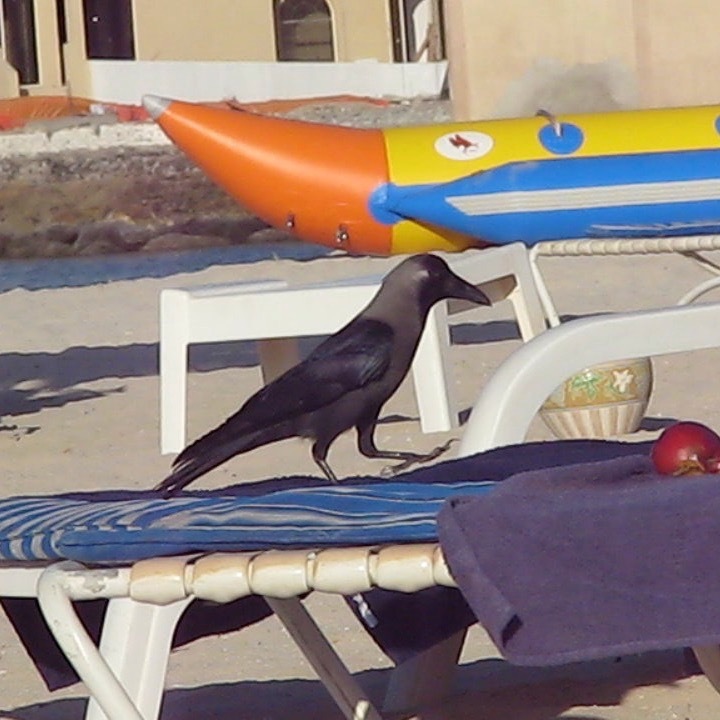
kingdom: Animalia
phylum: Chordata
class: Aves
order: Passeriformes
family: Corvidae
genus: Corvus
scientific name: Corvus splendens
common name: House crow
